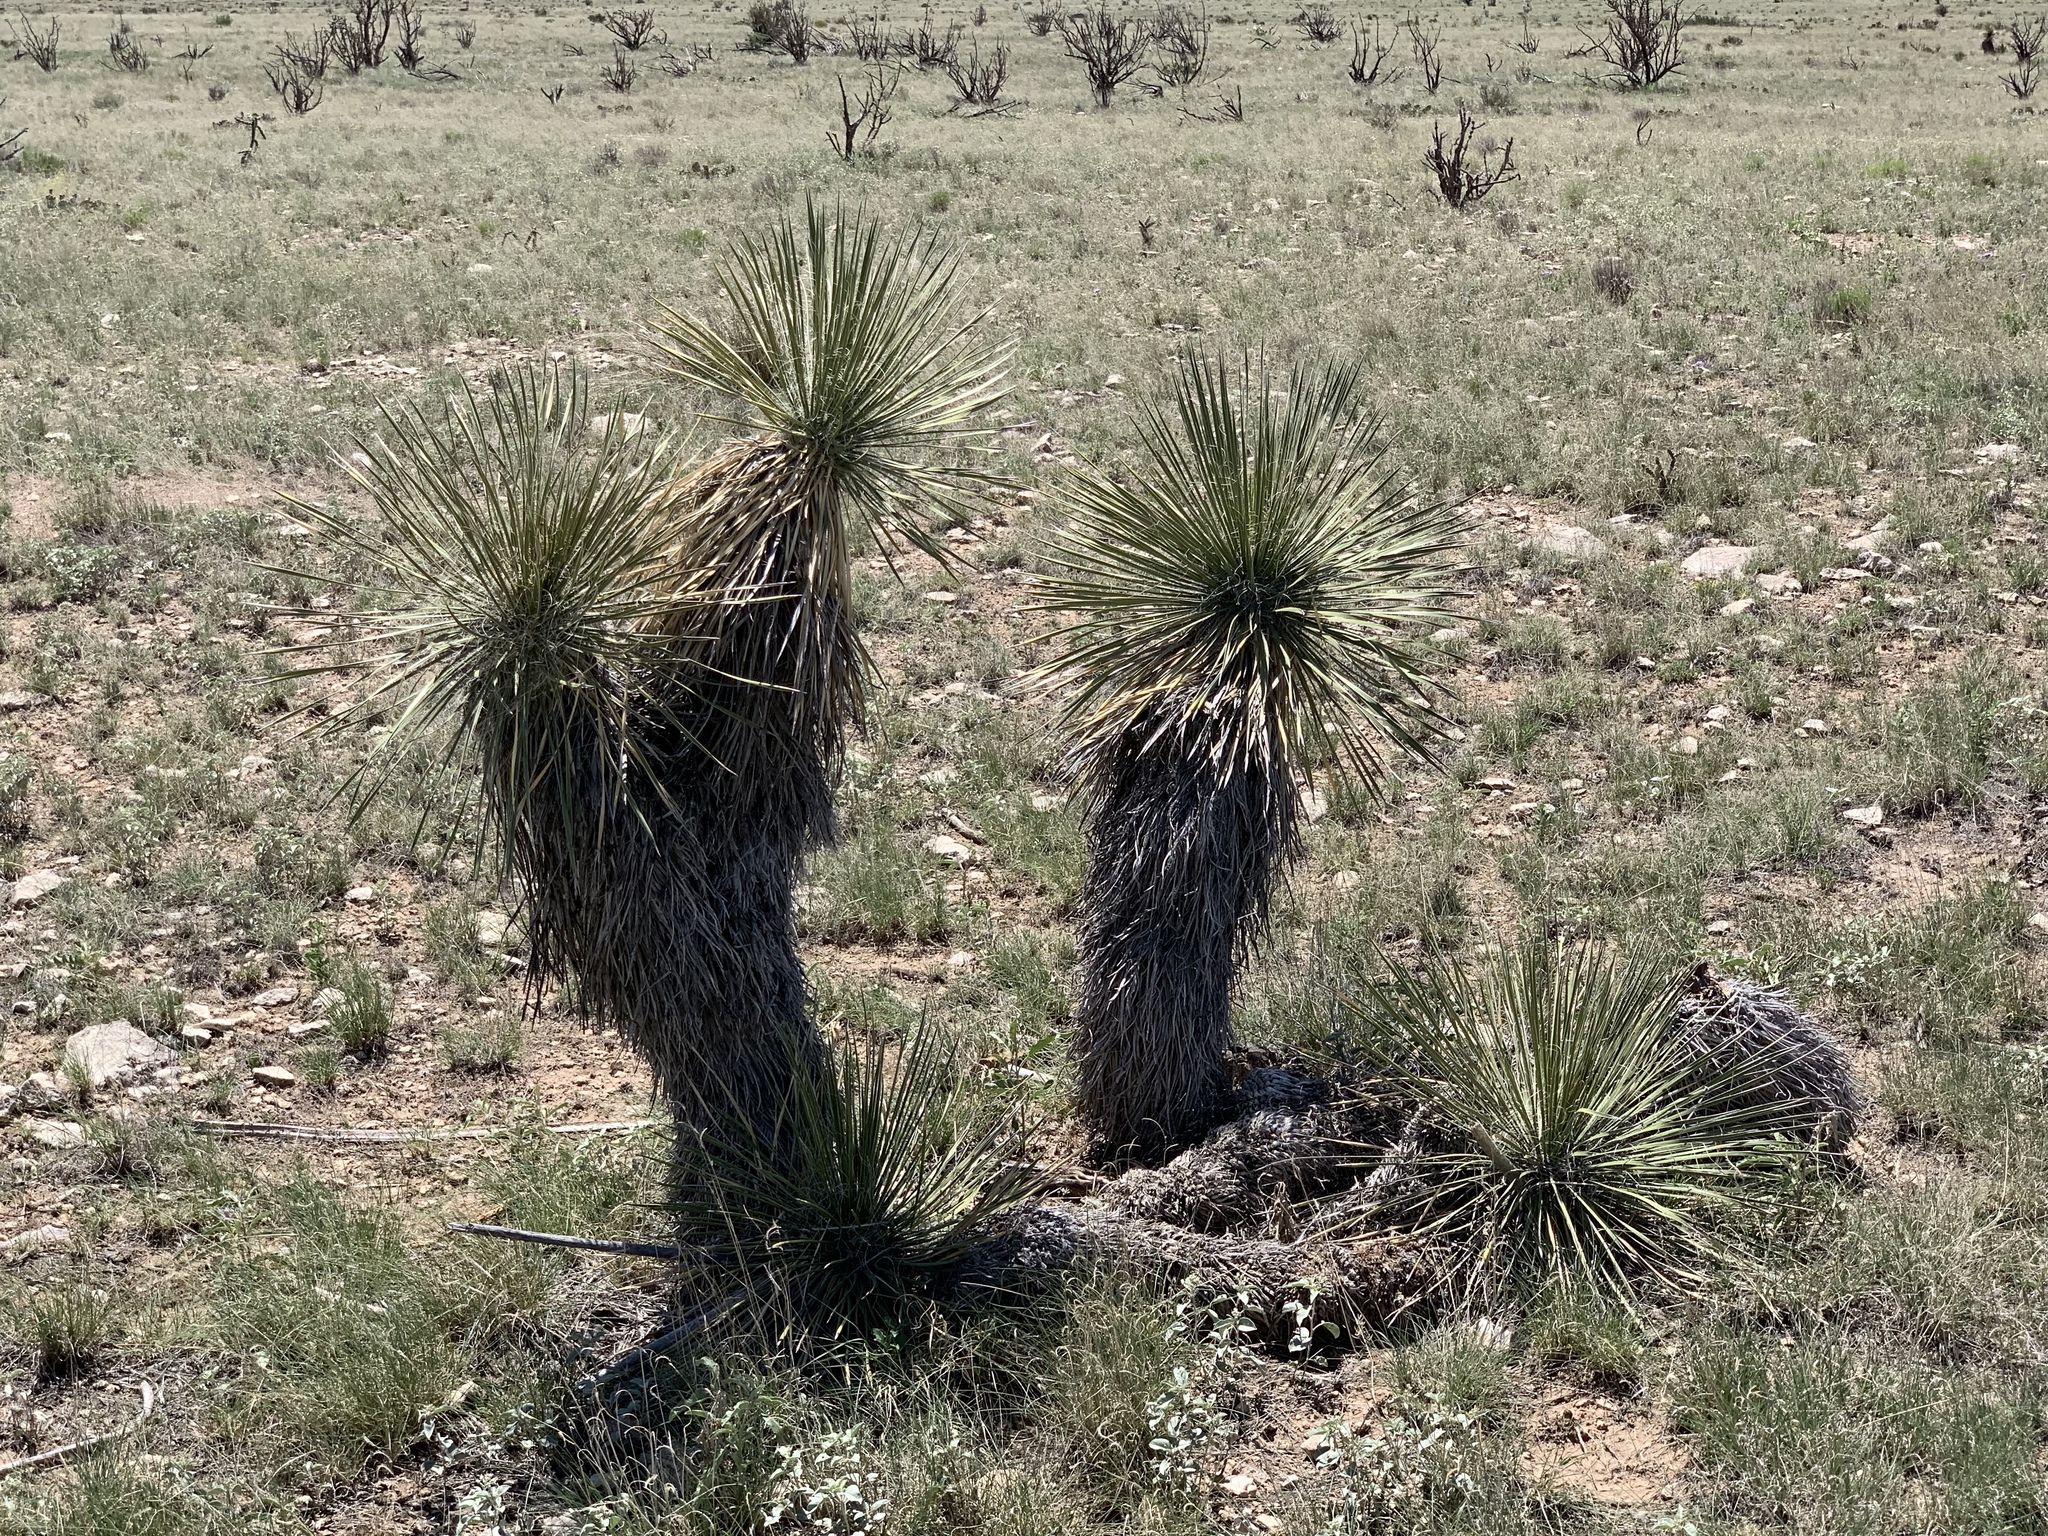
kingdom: Plantae
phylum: Tracheophyta
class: Liliopsida
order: Asparagales
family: Asparagaceae
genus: Yucca
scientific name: Yucca elata
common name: Palmella
